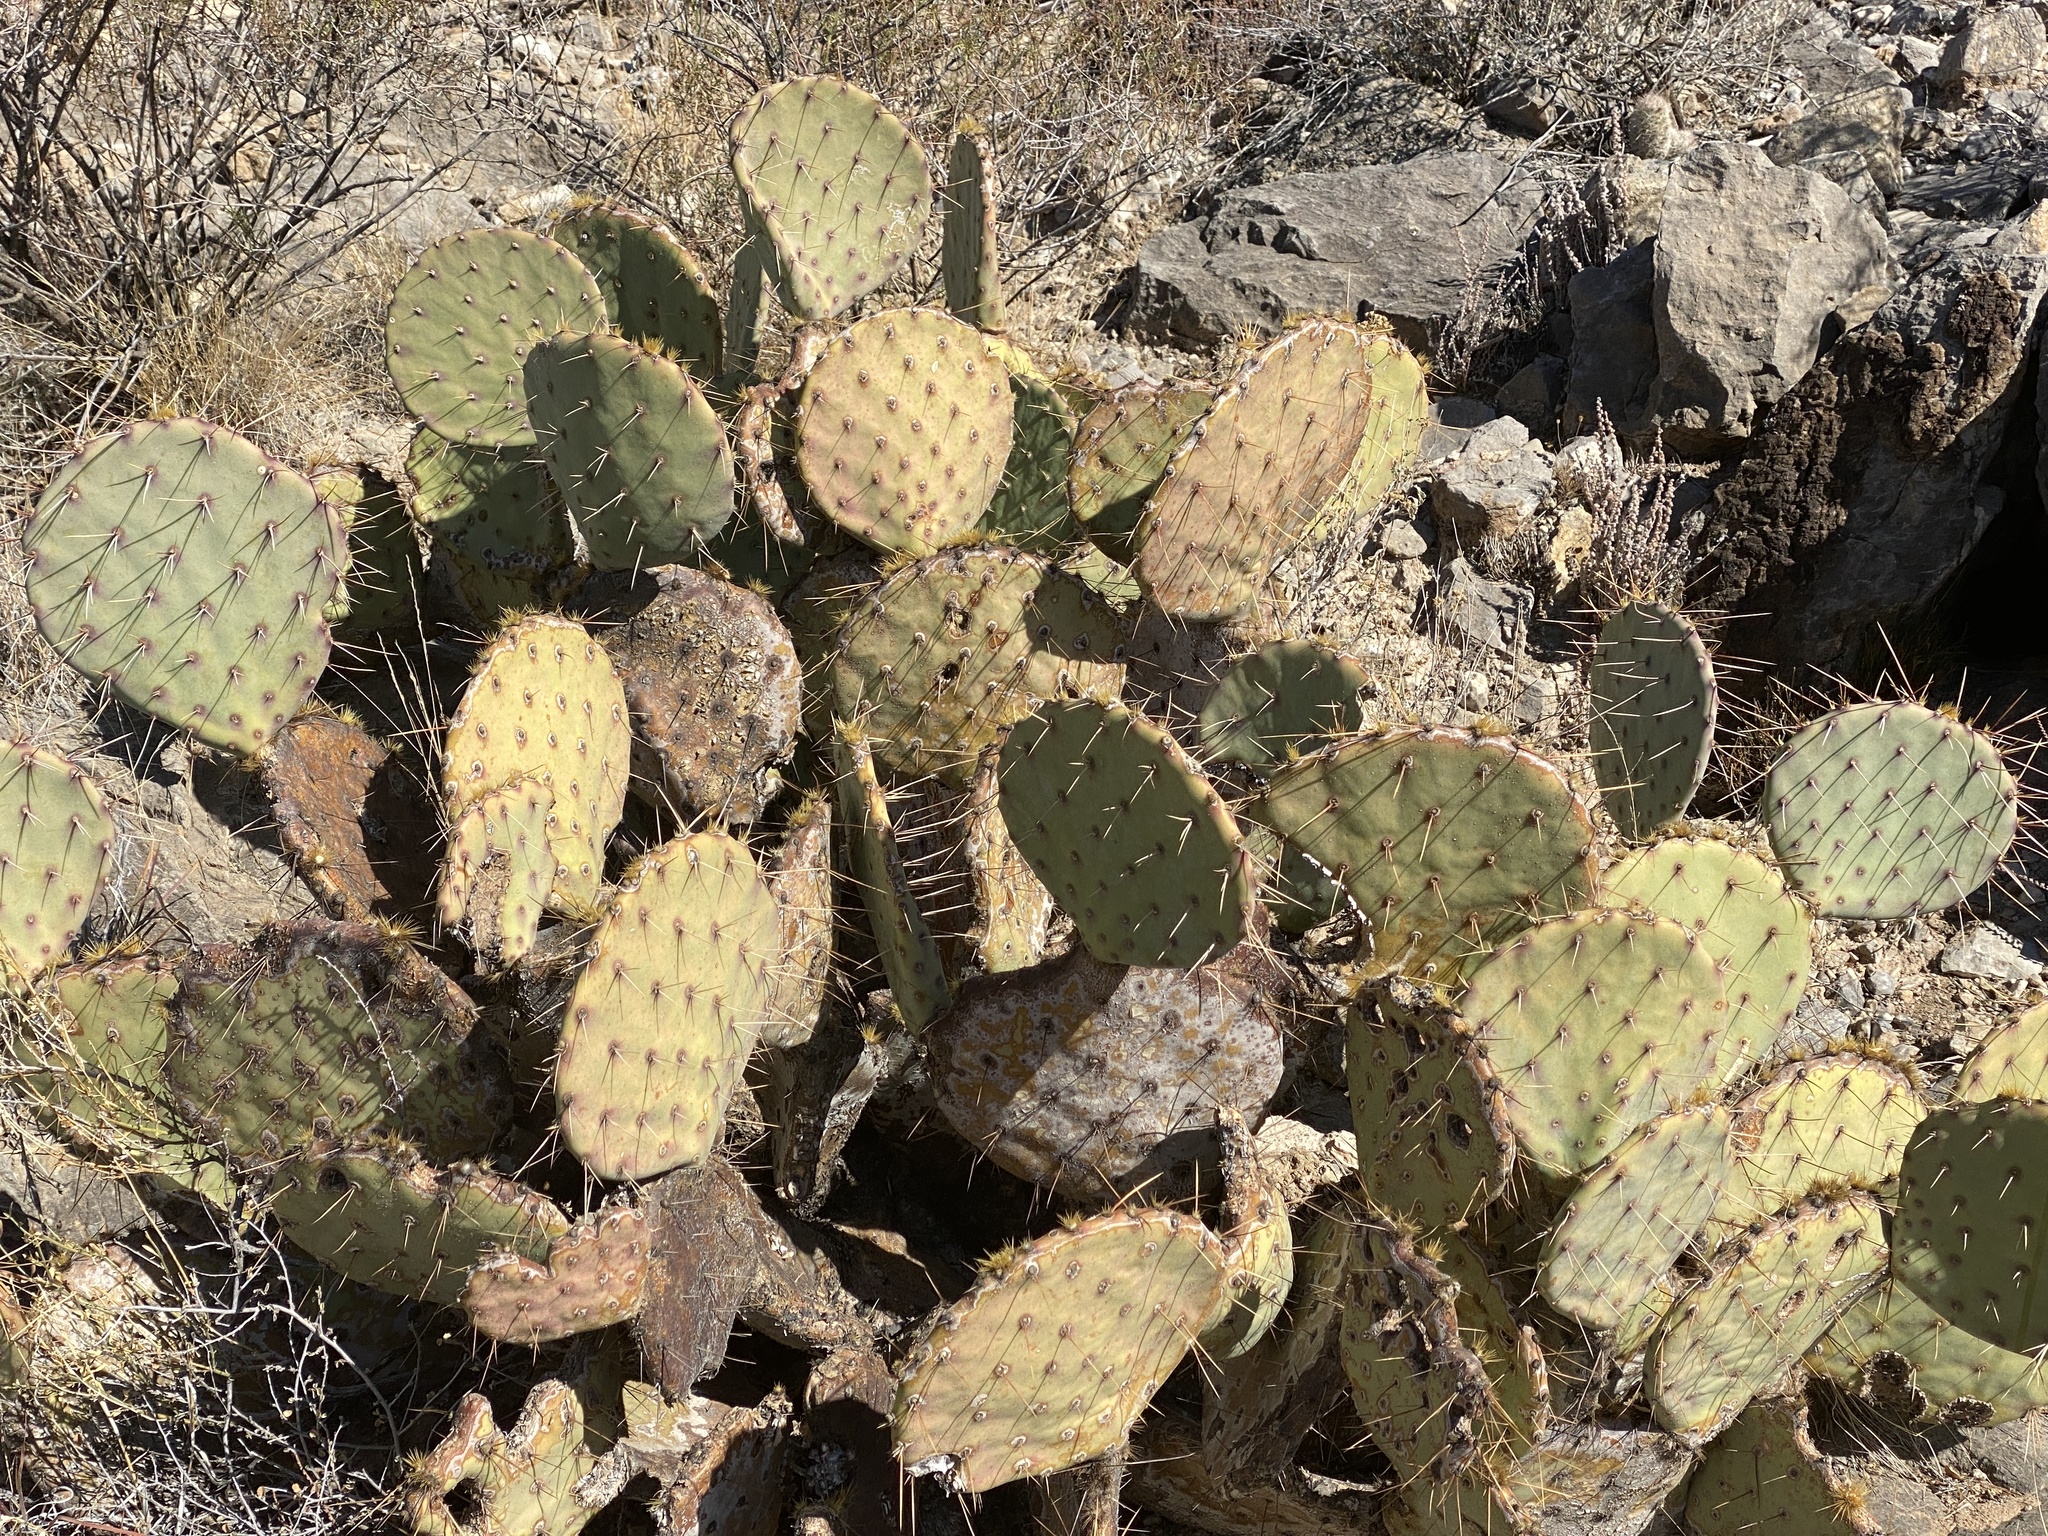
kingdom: Plantae
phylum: Tracheophyta
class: Magnoliopsida
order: Caryophyllales
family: Cactaceae
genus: Opuntia
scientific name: Opuntia engelmannii
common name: Cactus-apple
